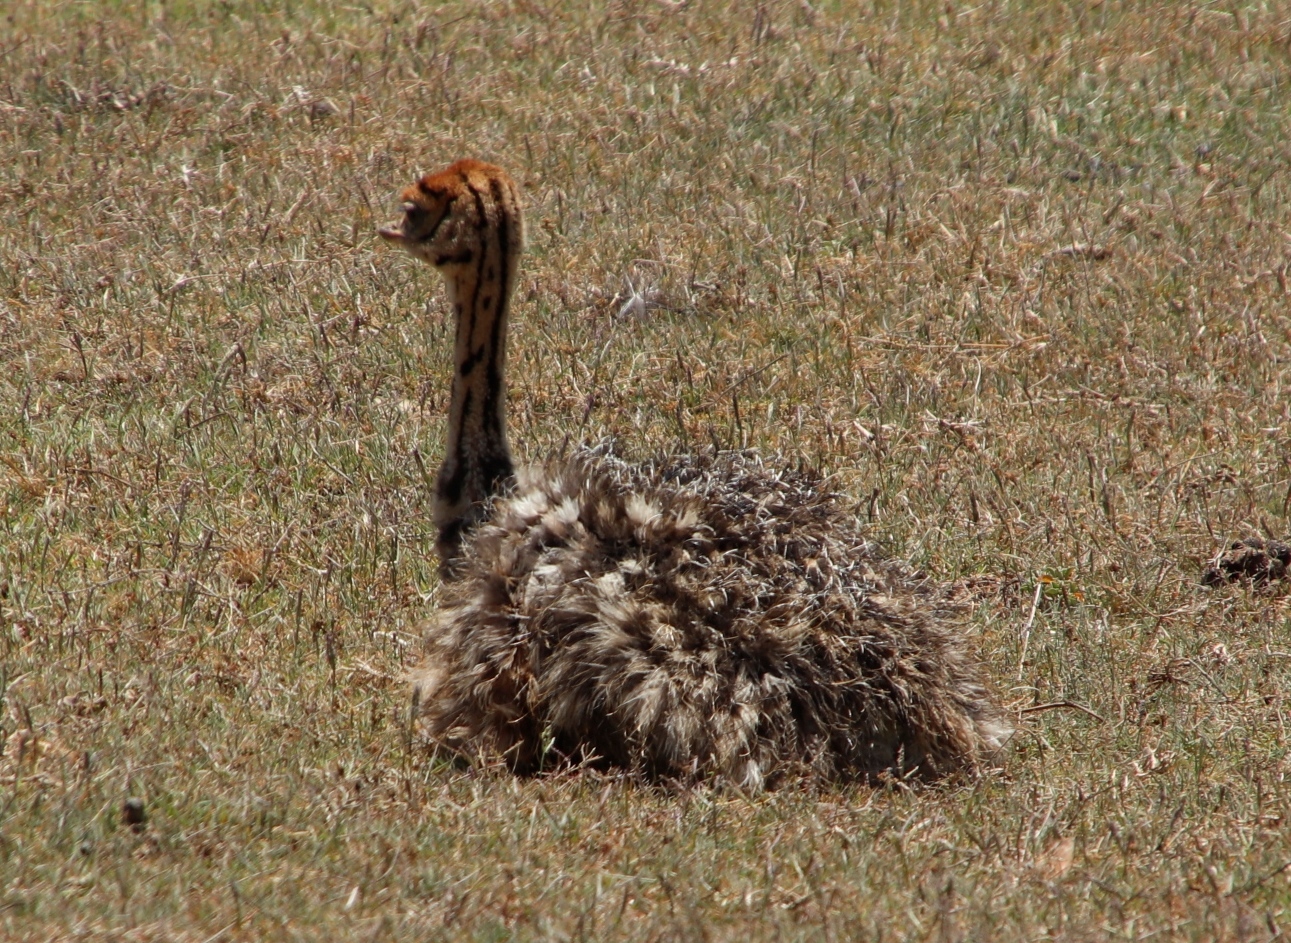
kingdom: Animalia
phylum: Chordata
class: Aves
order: Struthioniformes
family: Struthionidae
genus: Struthio
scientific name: Struthio camelus
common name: Common ostrich
